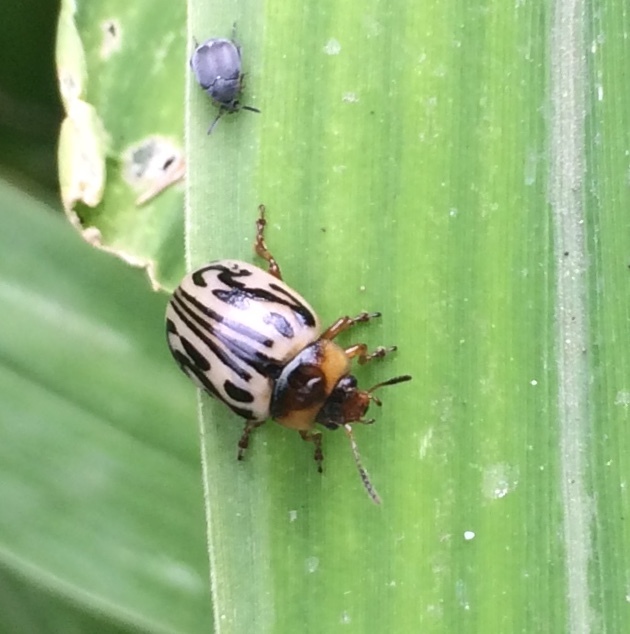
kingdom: Animalia
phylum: Arthropoda
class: Insecta
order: Coleoptera
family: Chrysomelidae
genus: Calligrapha
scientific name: Calligrapha
